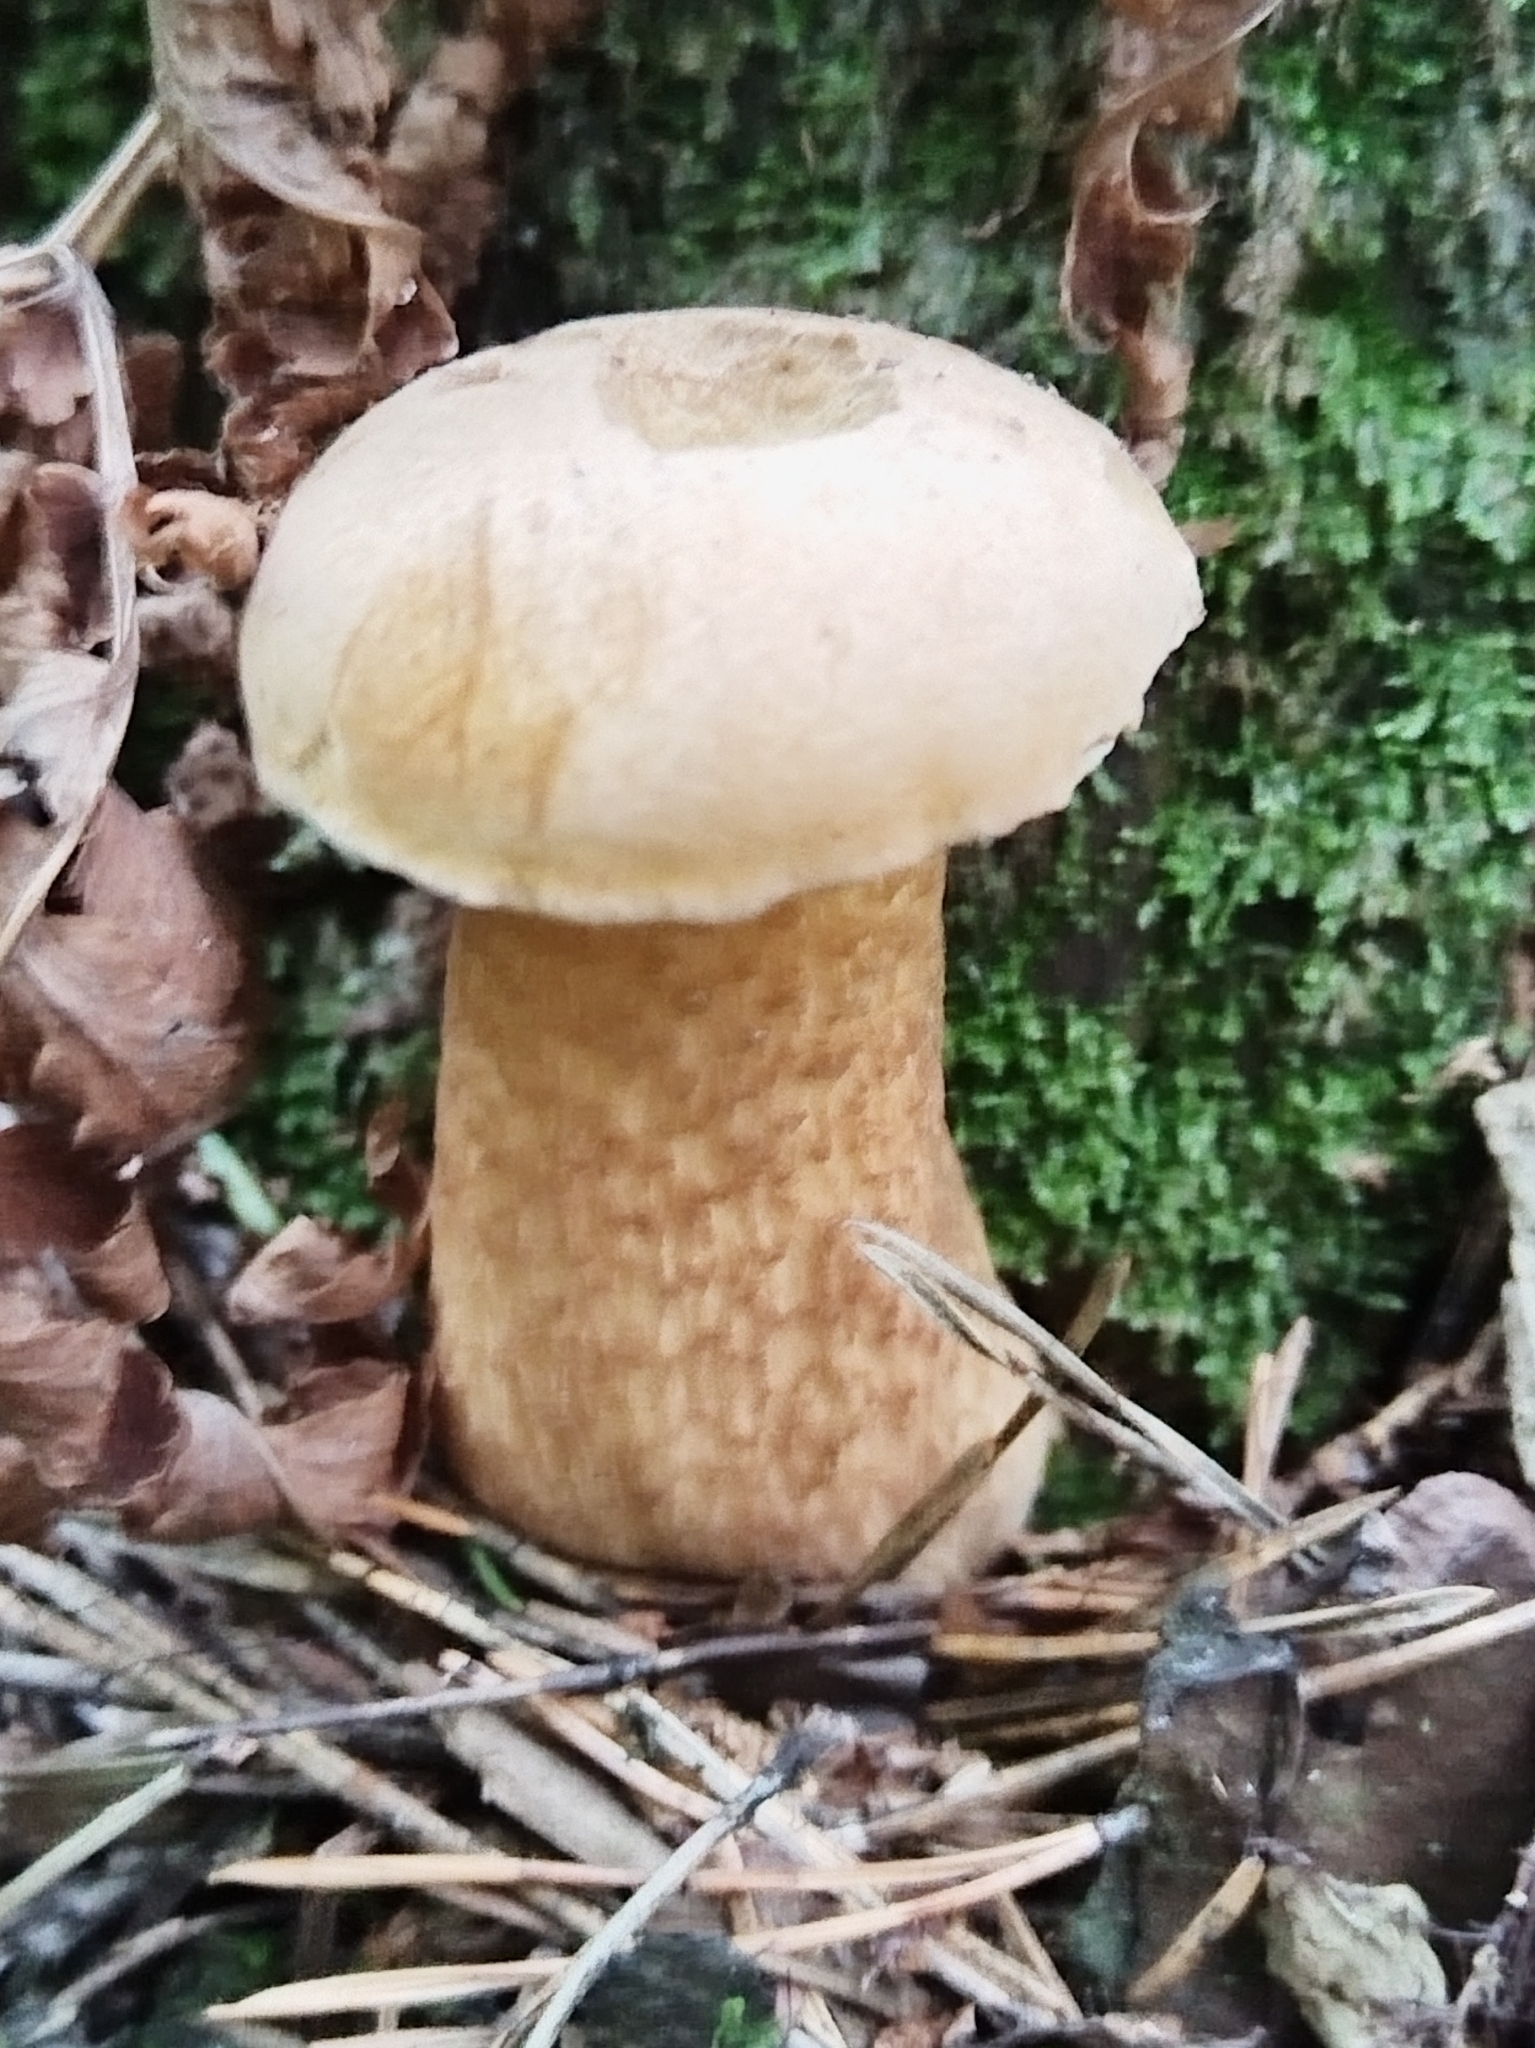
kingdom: Fungi
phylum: Basidiomycota
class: Agaricomycetes
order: Boletales
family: Boletaceae
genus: Tylopilus
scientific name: Tylopilus felleus
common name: Bitter bolete
